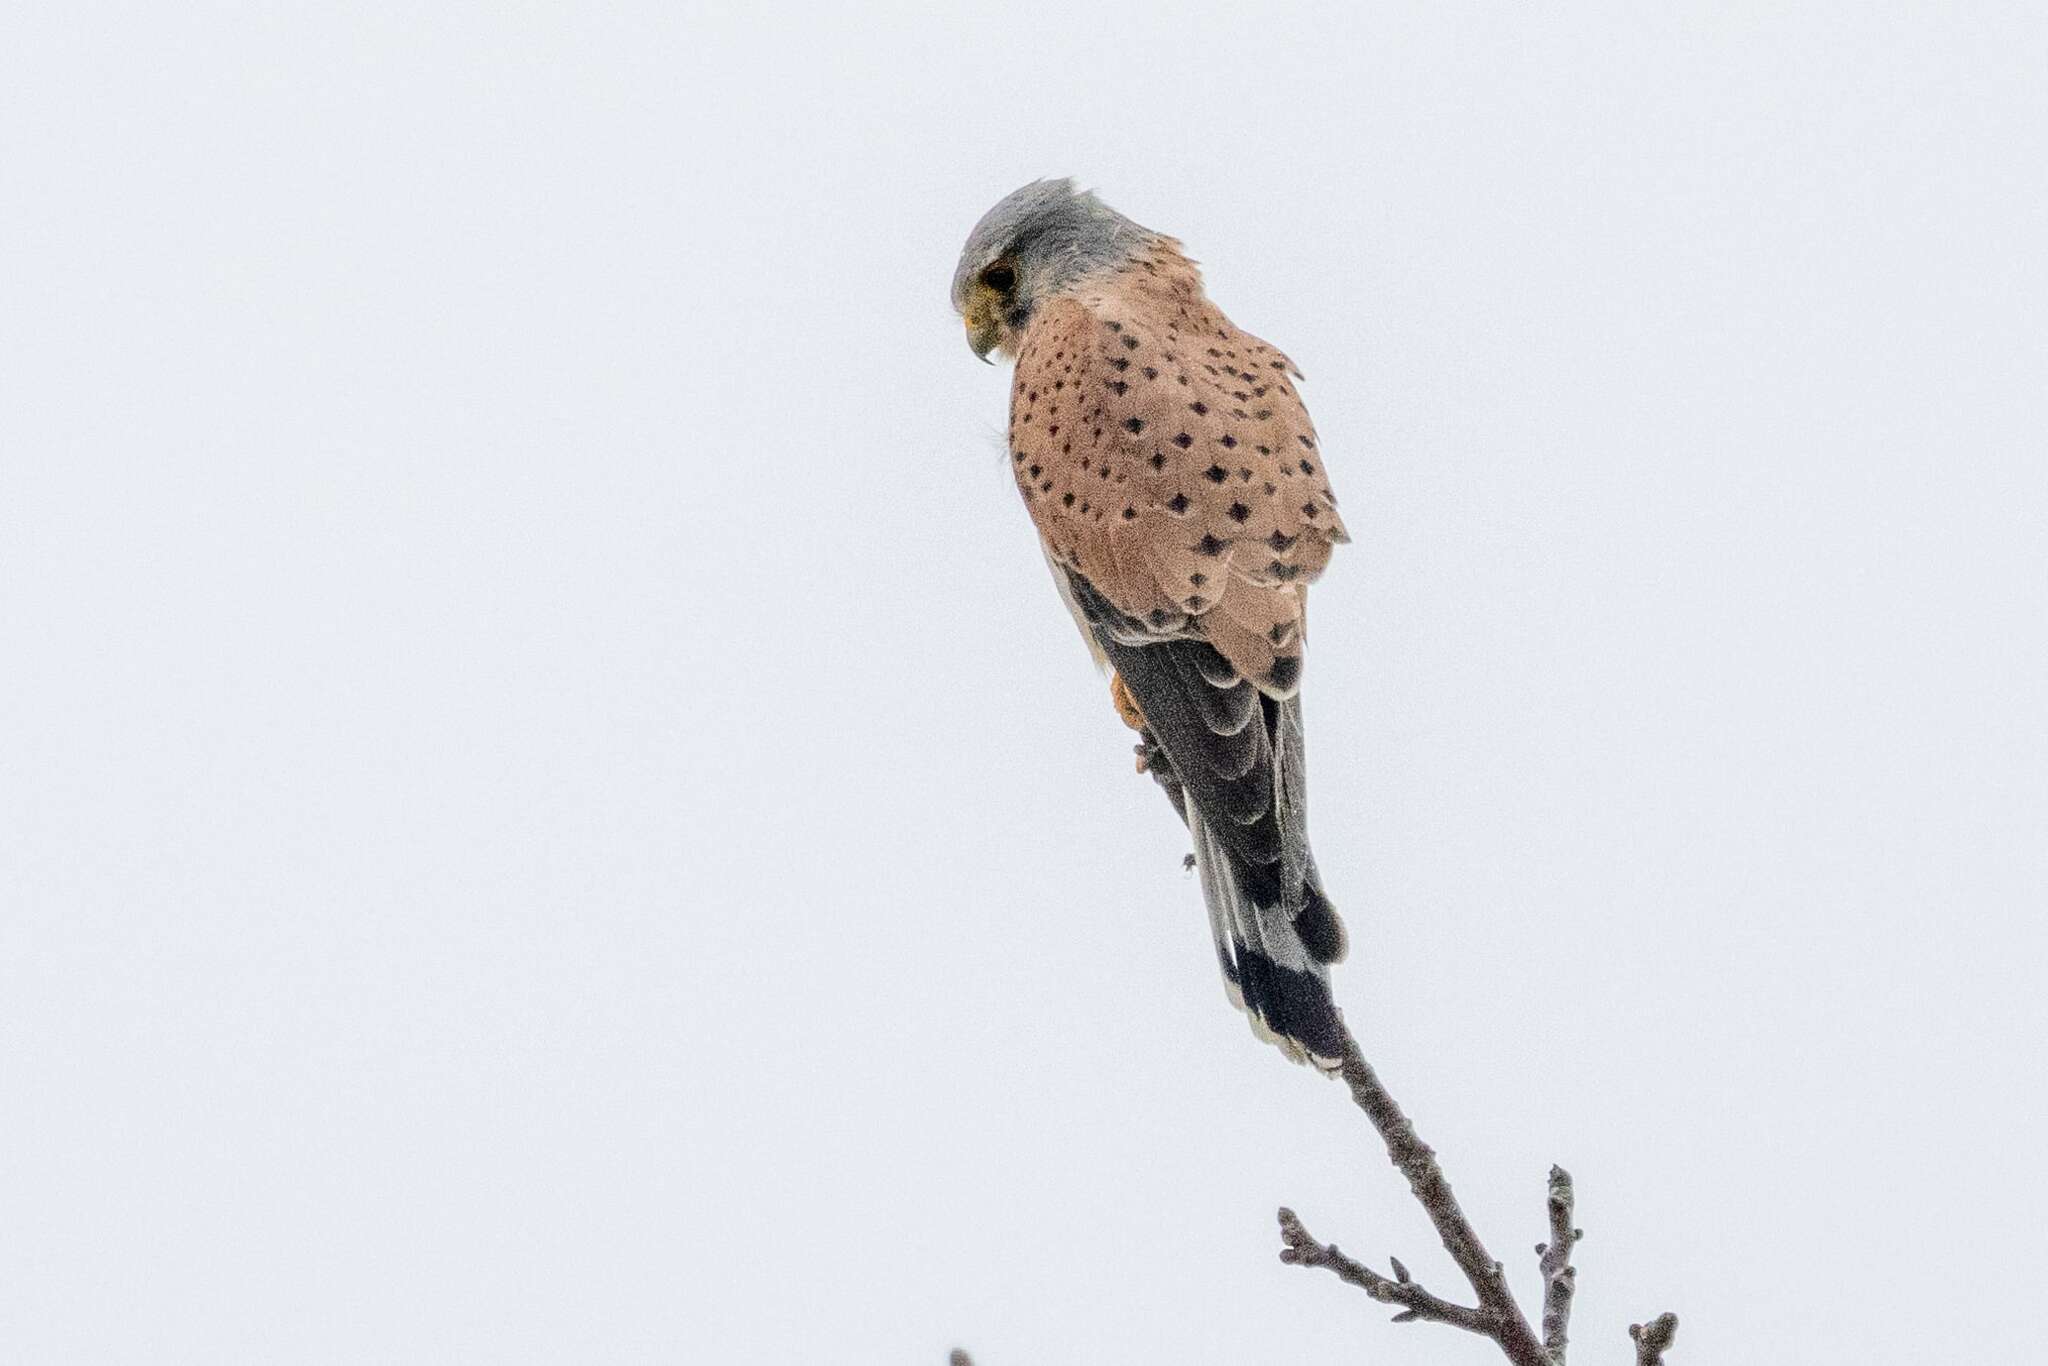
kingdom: Animalia
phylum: Chordata
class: Aves
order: Falconiformes
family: Falconidae
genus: Falco
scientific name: Falco tinnunculus
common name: Common kestrel
